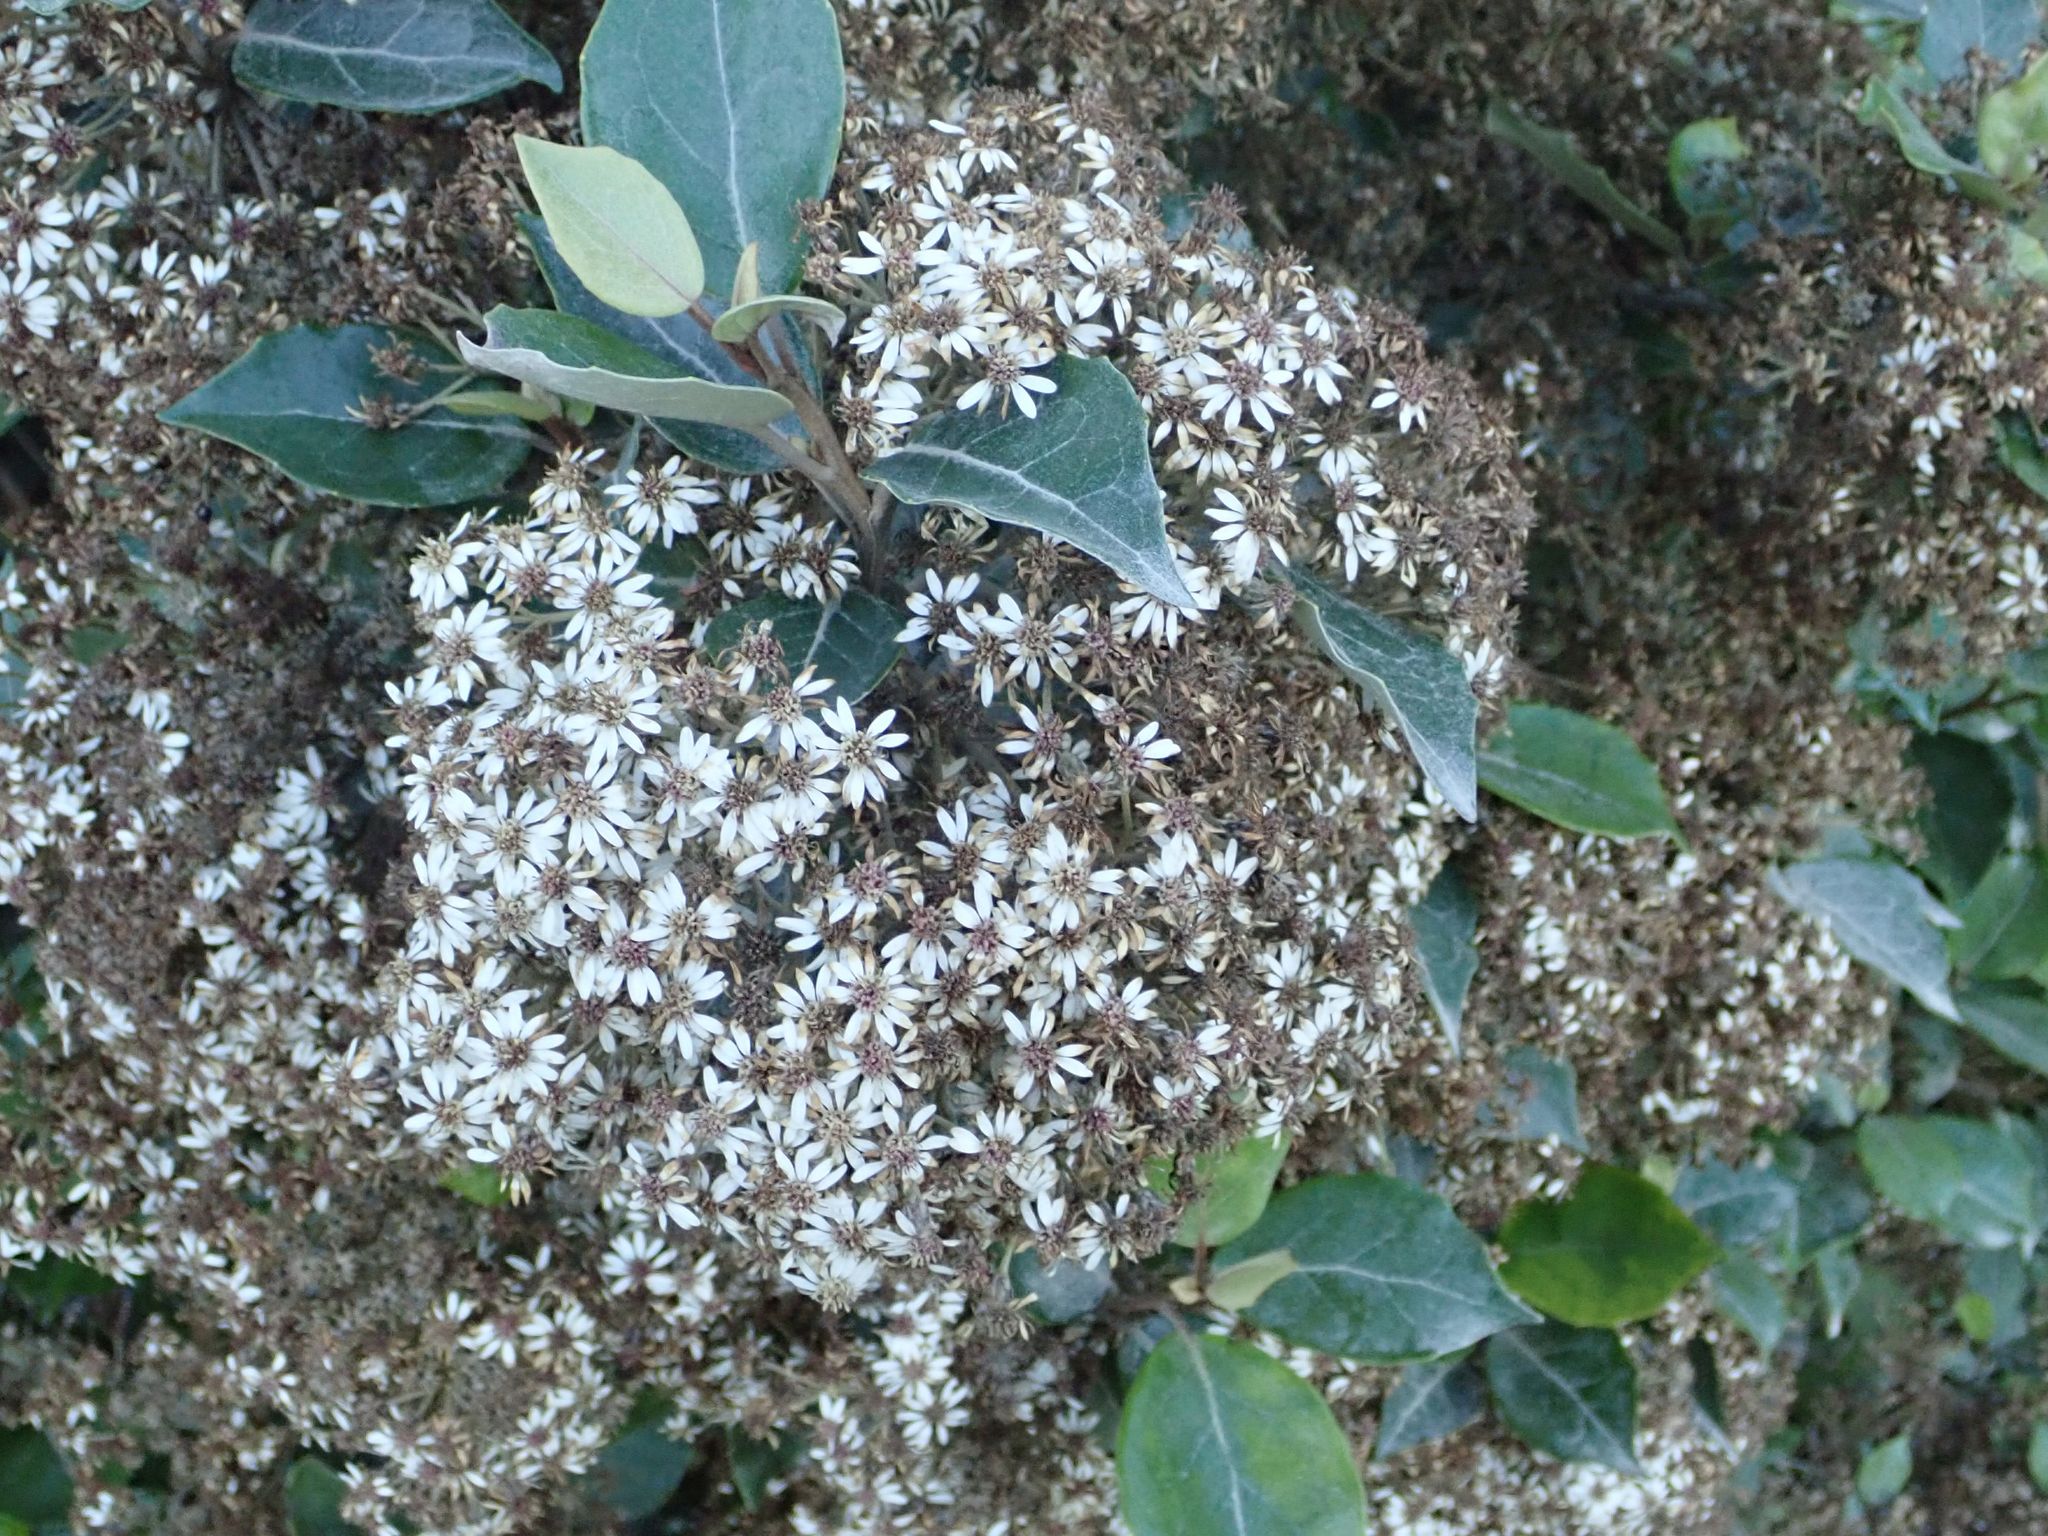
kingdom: Plantae
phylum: Tracheophyta
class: Magnoliopsida
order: Asterales
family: Asteraceae
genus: Olearia
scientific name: Olearia arborescens
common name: Glossy tree daisy
